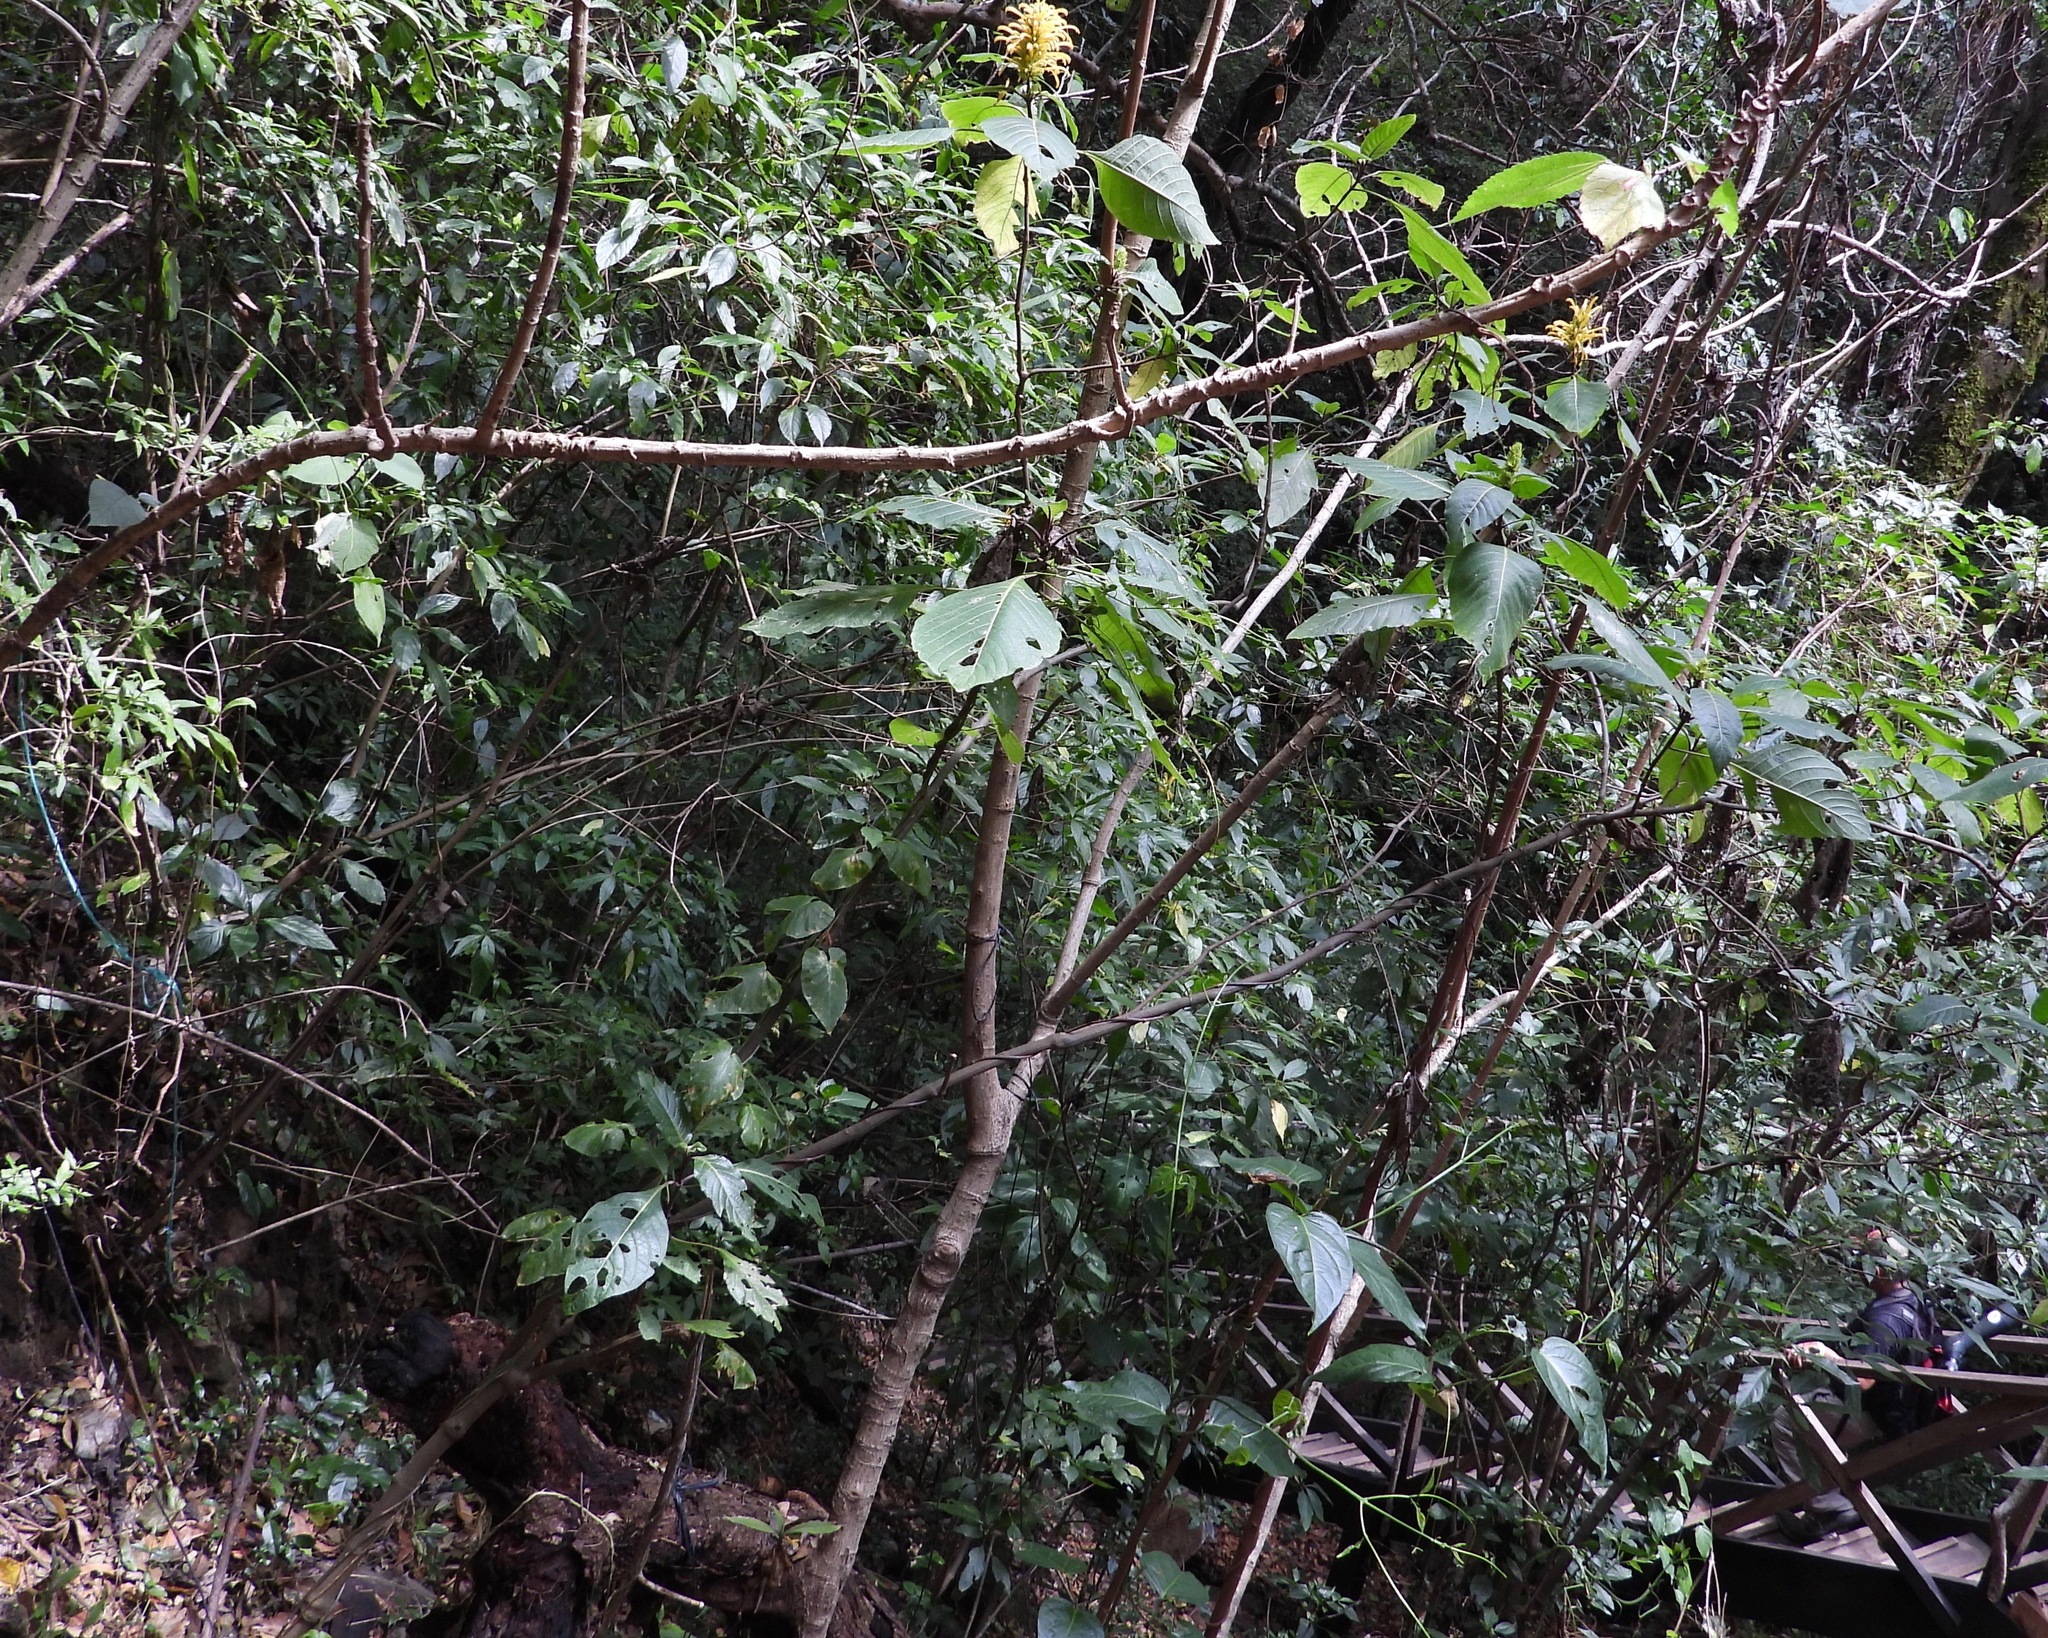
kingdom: Plantae
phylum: Tracheophyta
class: Magnoliopsida
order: Lamiales
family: Acanthaceae
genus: Justicia
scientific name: Justicia aurea
